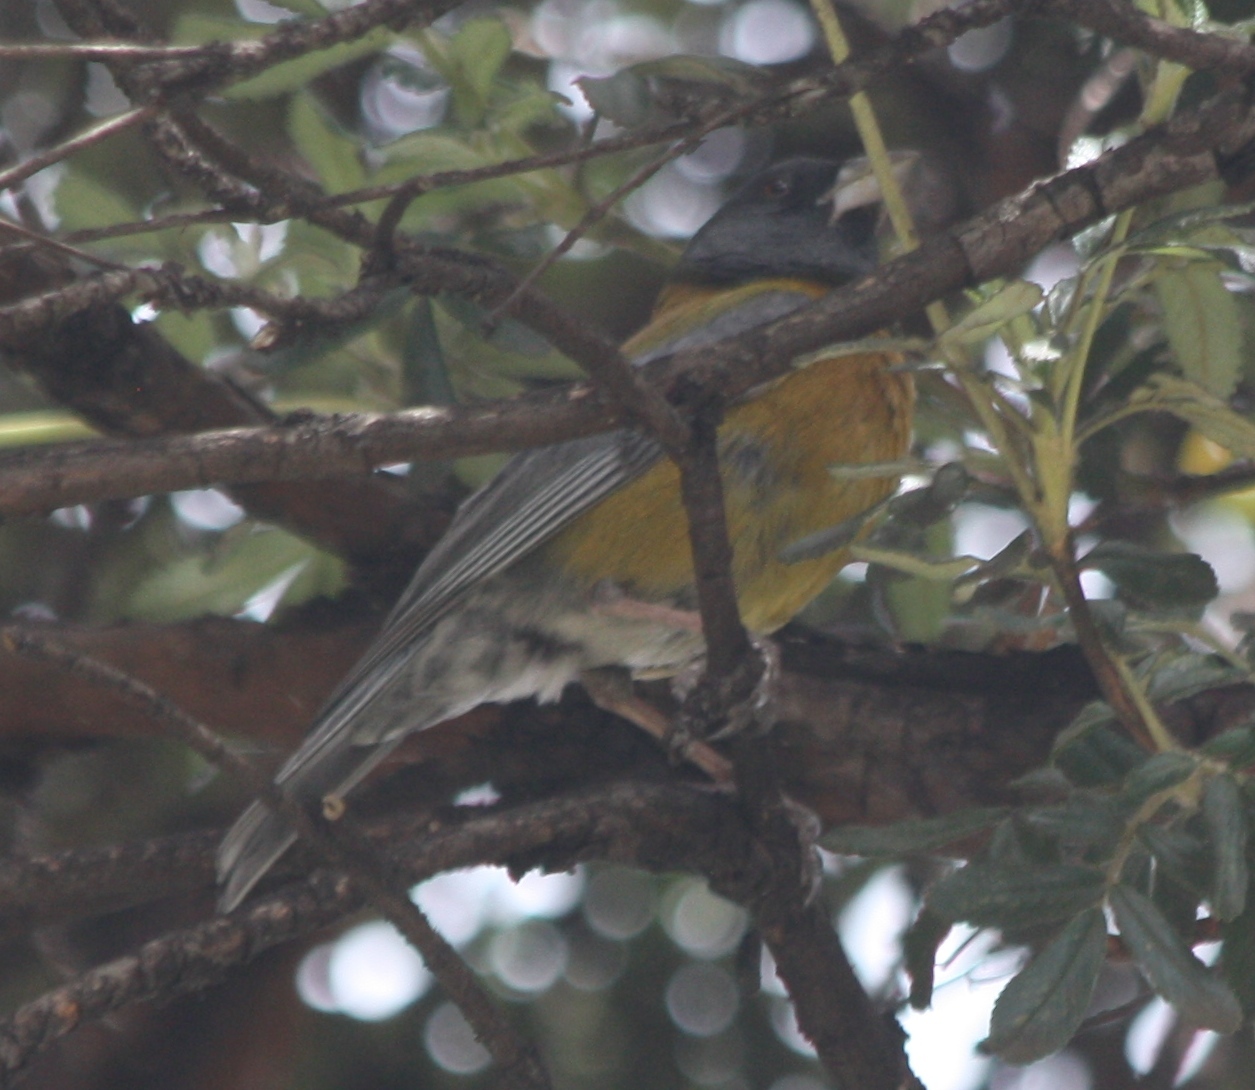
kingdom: Animalia
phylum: Chordata
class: Aves
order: Passeriformes
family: Thraupidae
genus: Phrygilus
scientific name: Phrygilus punensis
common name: Peruvian sierra finch
